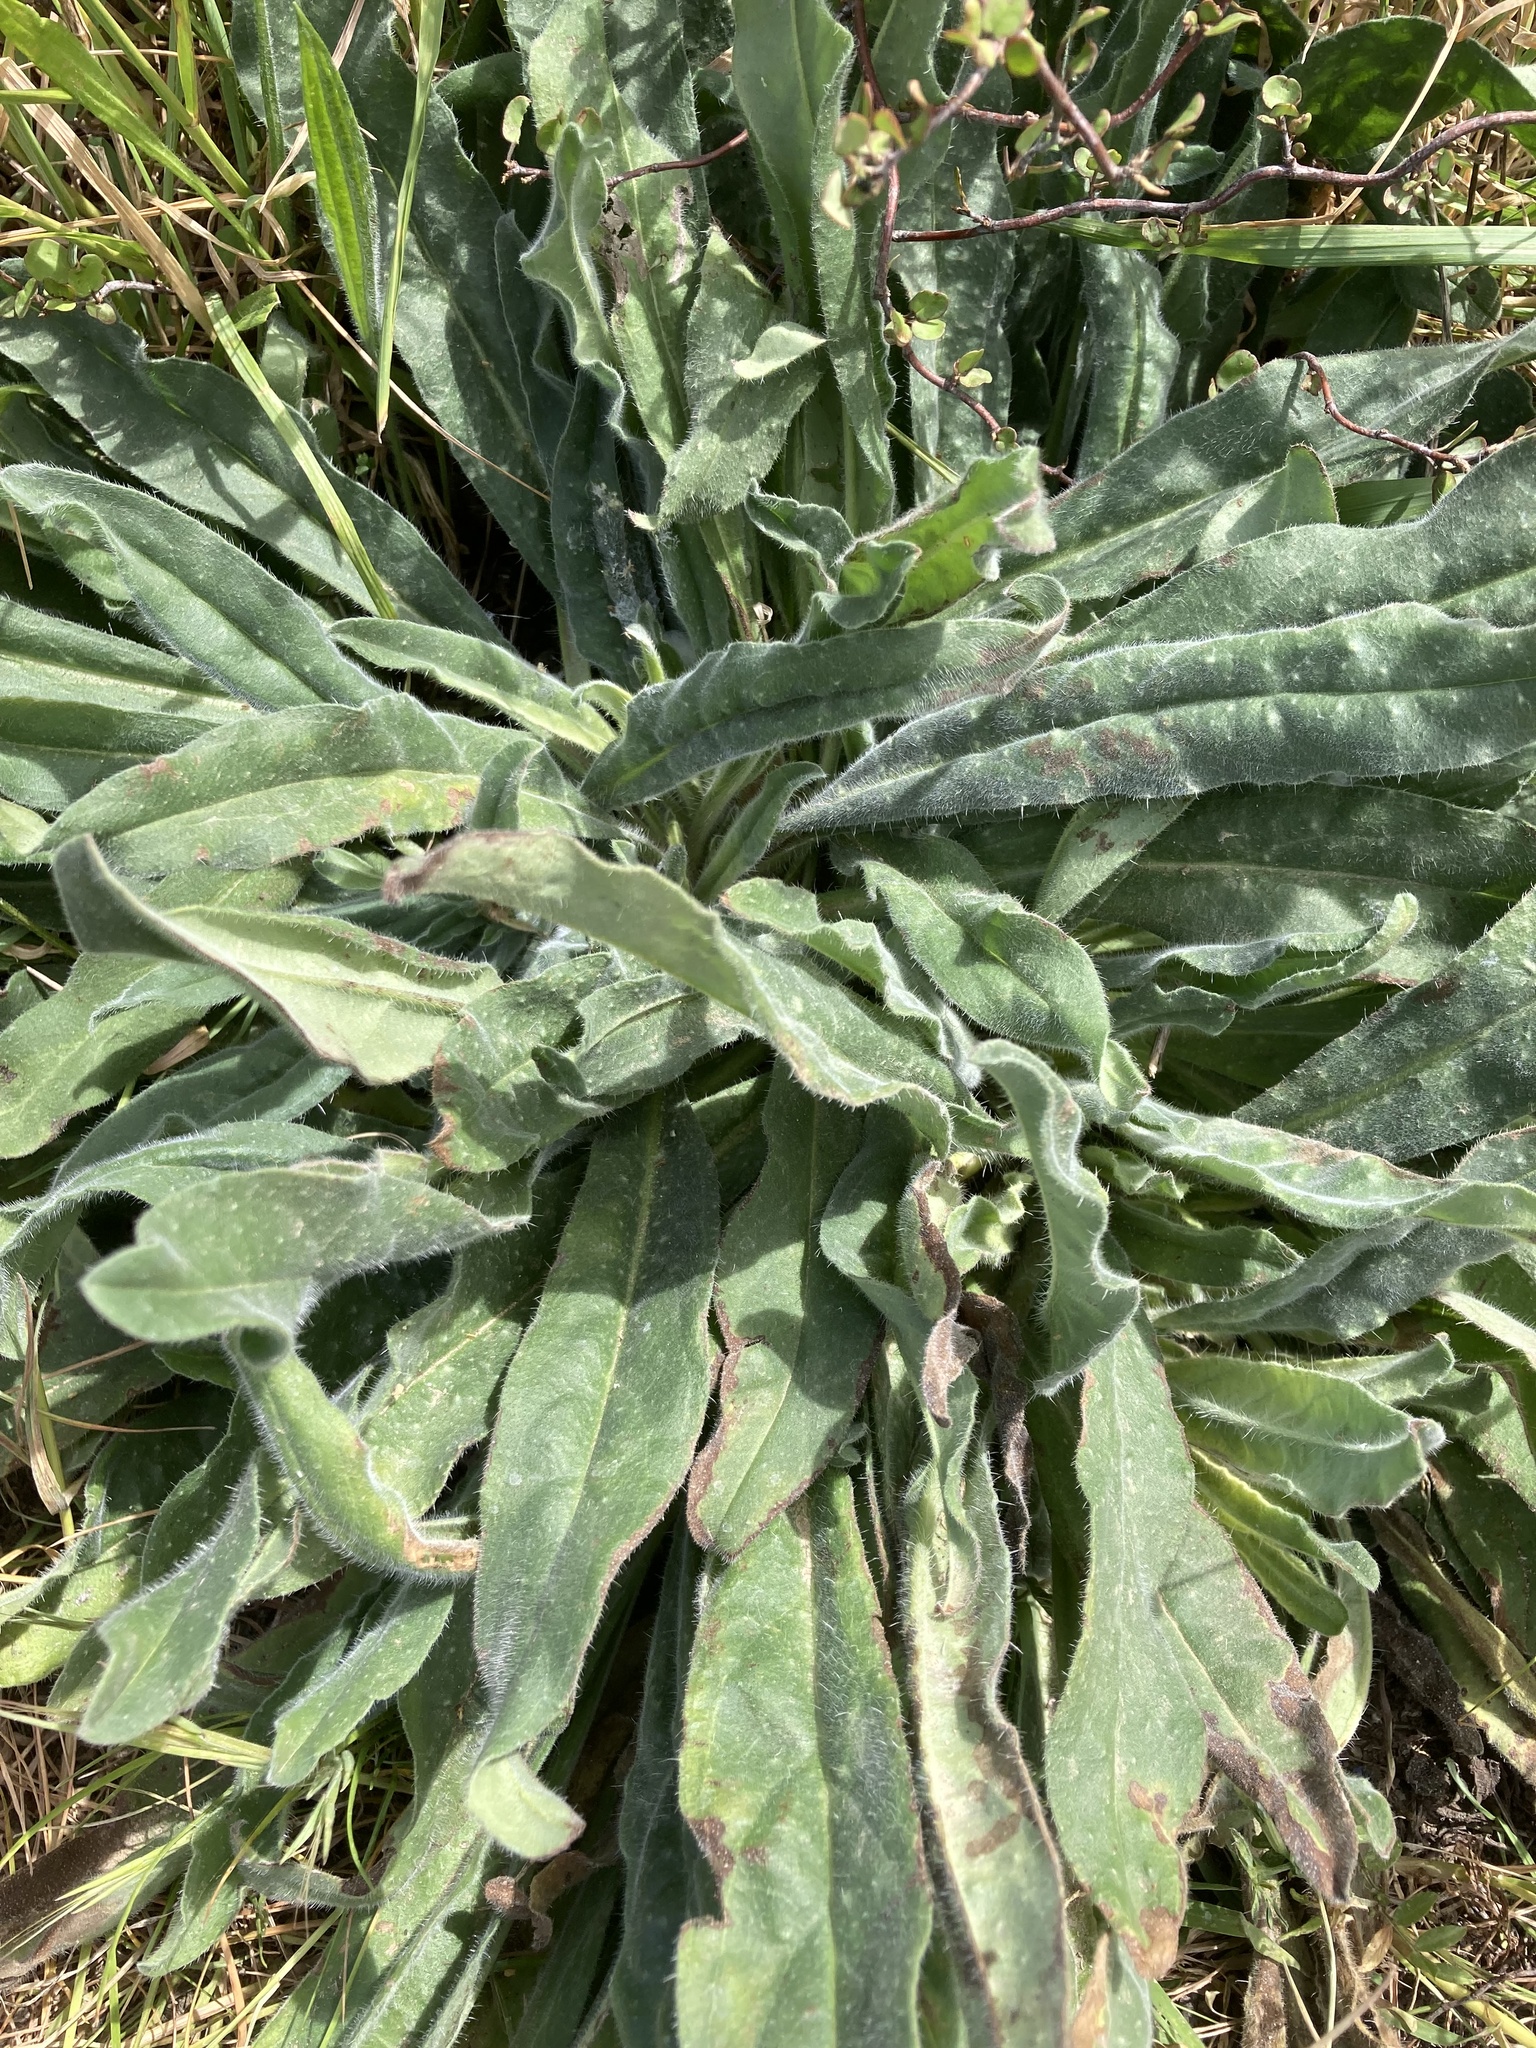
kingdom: Plantae
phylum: Tracheophyta
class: Magnoliopsida
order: Boraginales
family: Boraginaceae
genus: Echium
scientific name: Echium vulgare
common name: Common viper's bugloss
